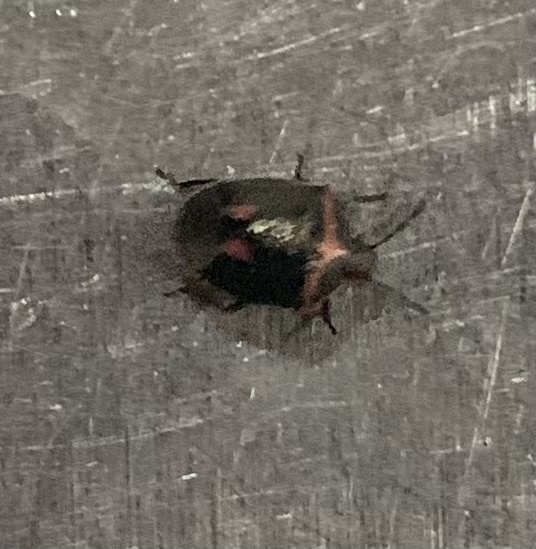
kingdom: Animalia
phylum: Arthropoda
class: Insecta
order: Hemiptera
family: Pentatomidae
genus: Cosmopepla
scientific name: Cosmopepla lintneriana
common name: Twice-stabbed stink bug
